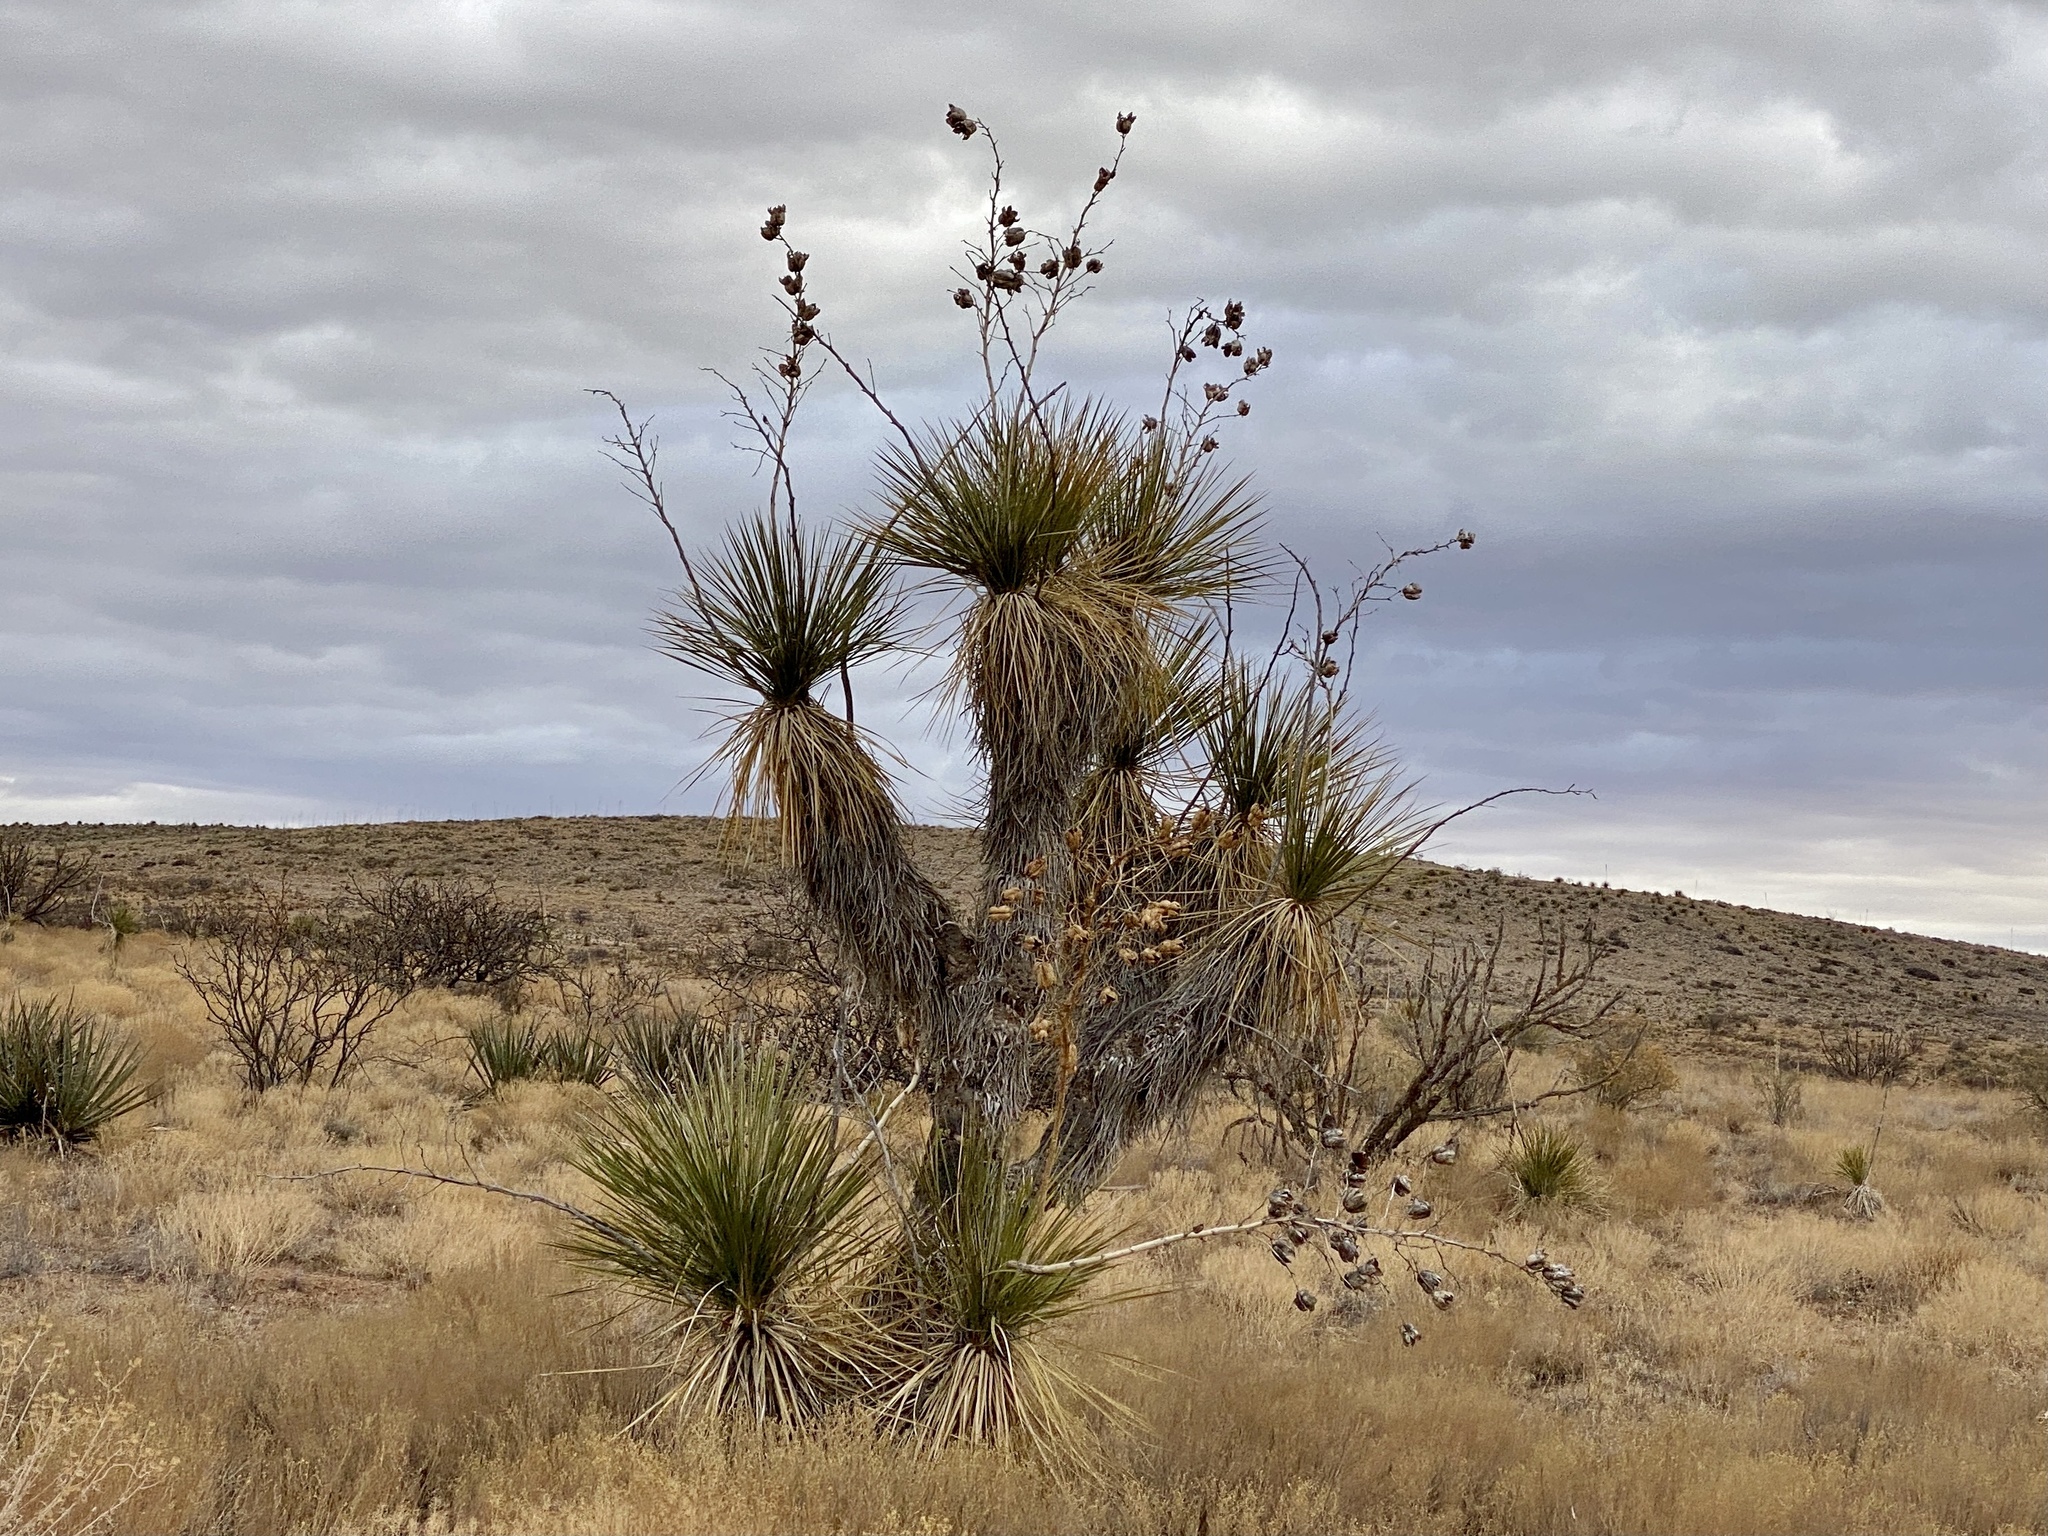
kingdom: Plantae
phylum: Tracheophyta
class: Liliopsida
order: Asparagales
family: Asparagaceae
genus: Yucca
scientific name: Yucca elata
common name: Palmella
